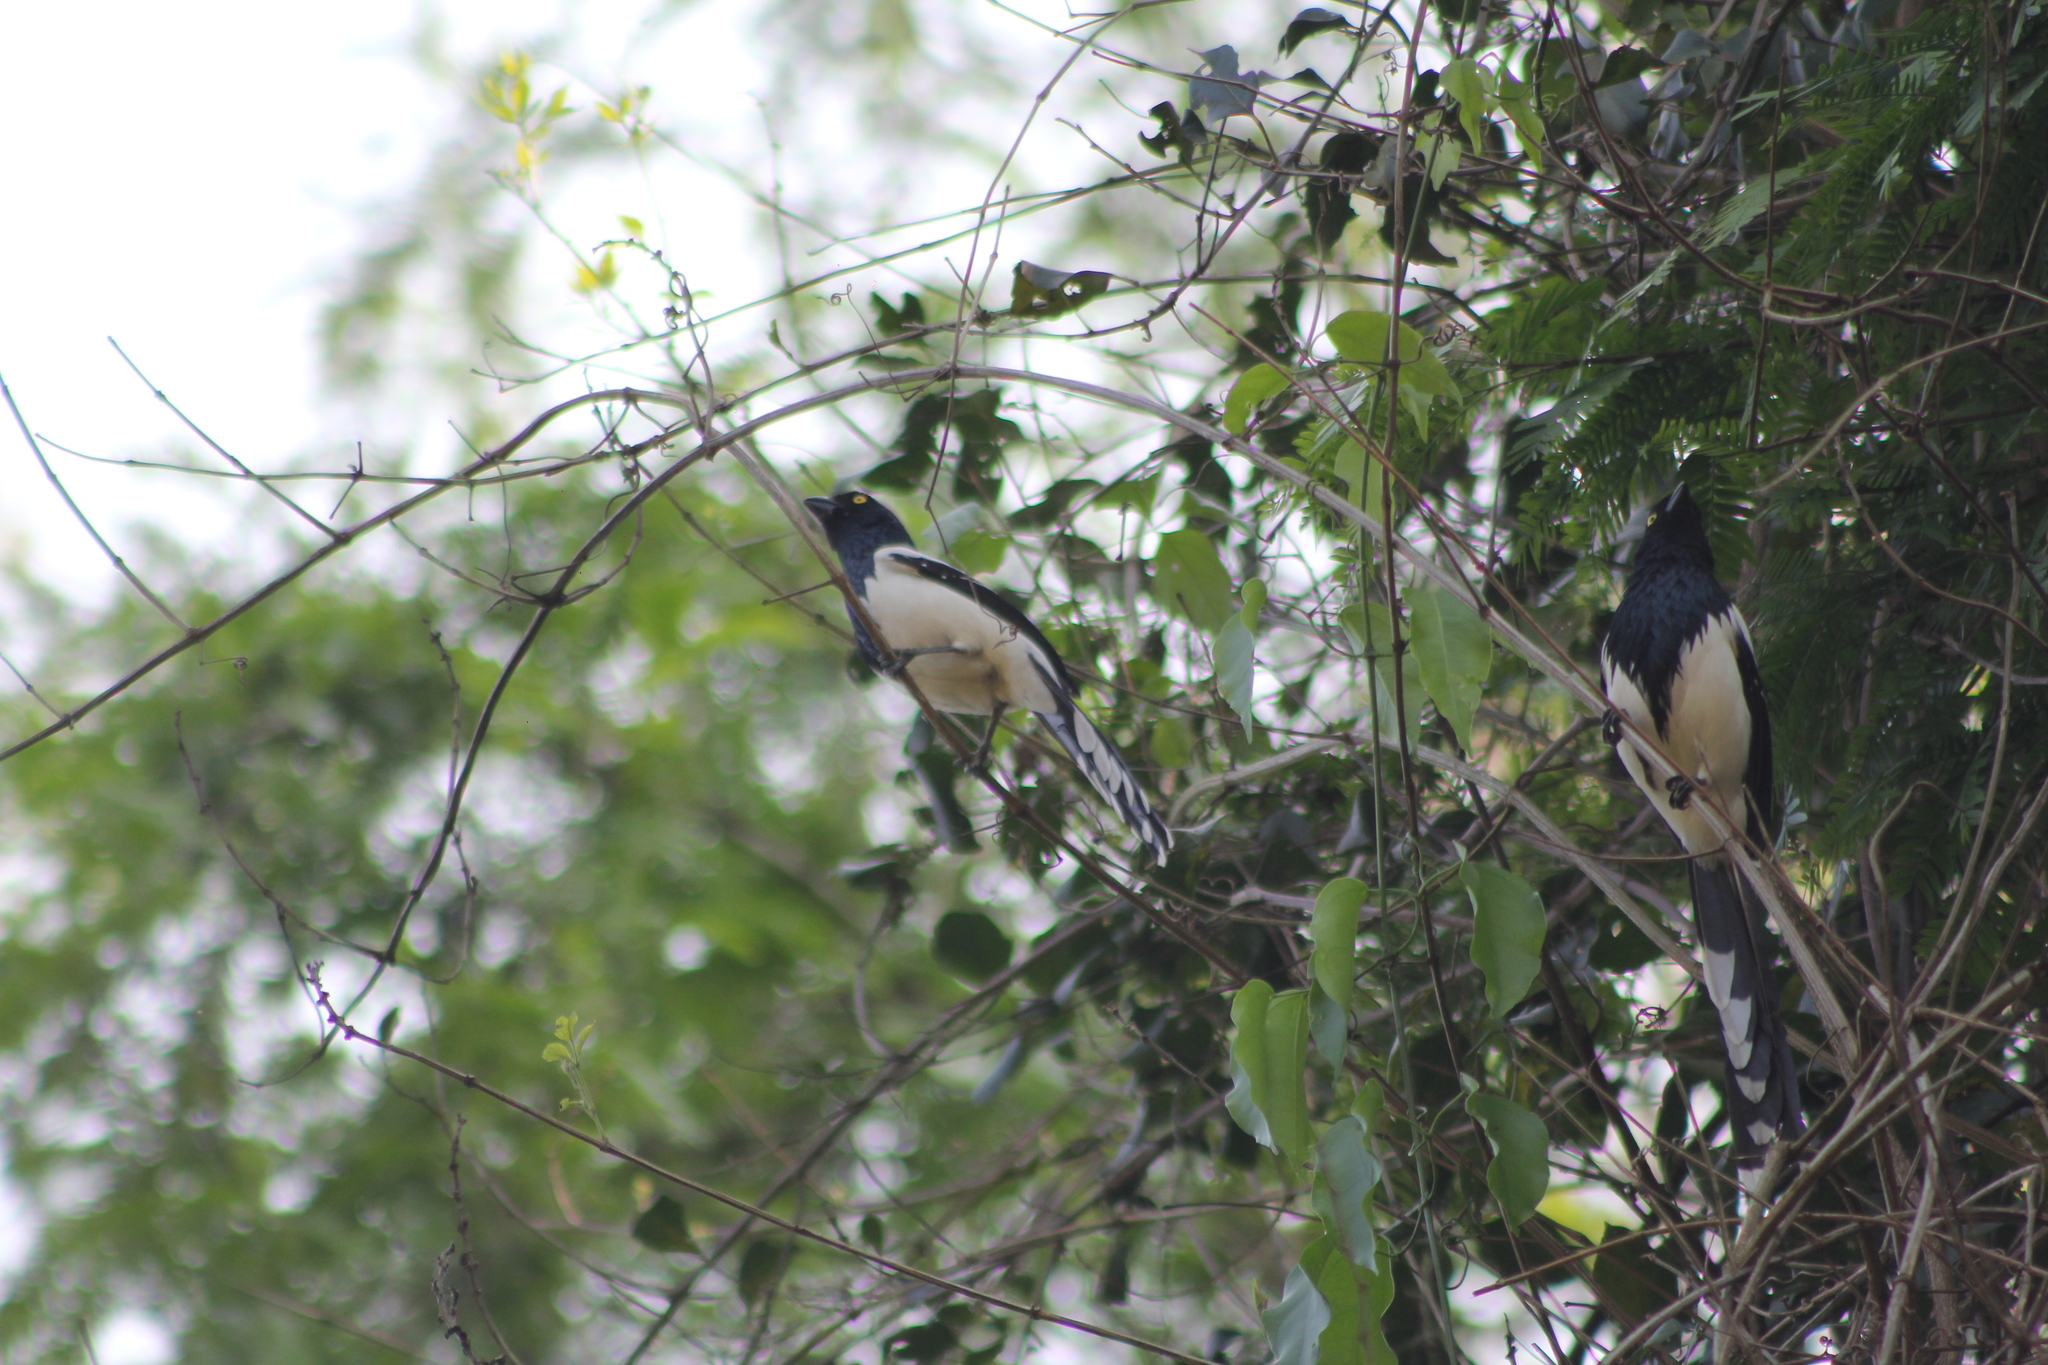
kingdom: Animalia
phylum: Chordata
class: Aves
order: Passeriformes
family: Thraupidae
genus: Cissopis
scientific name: Cissopis leverianus
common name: Magpie tanager
